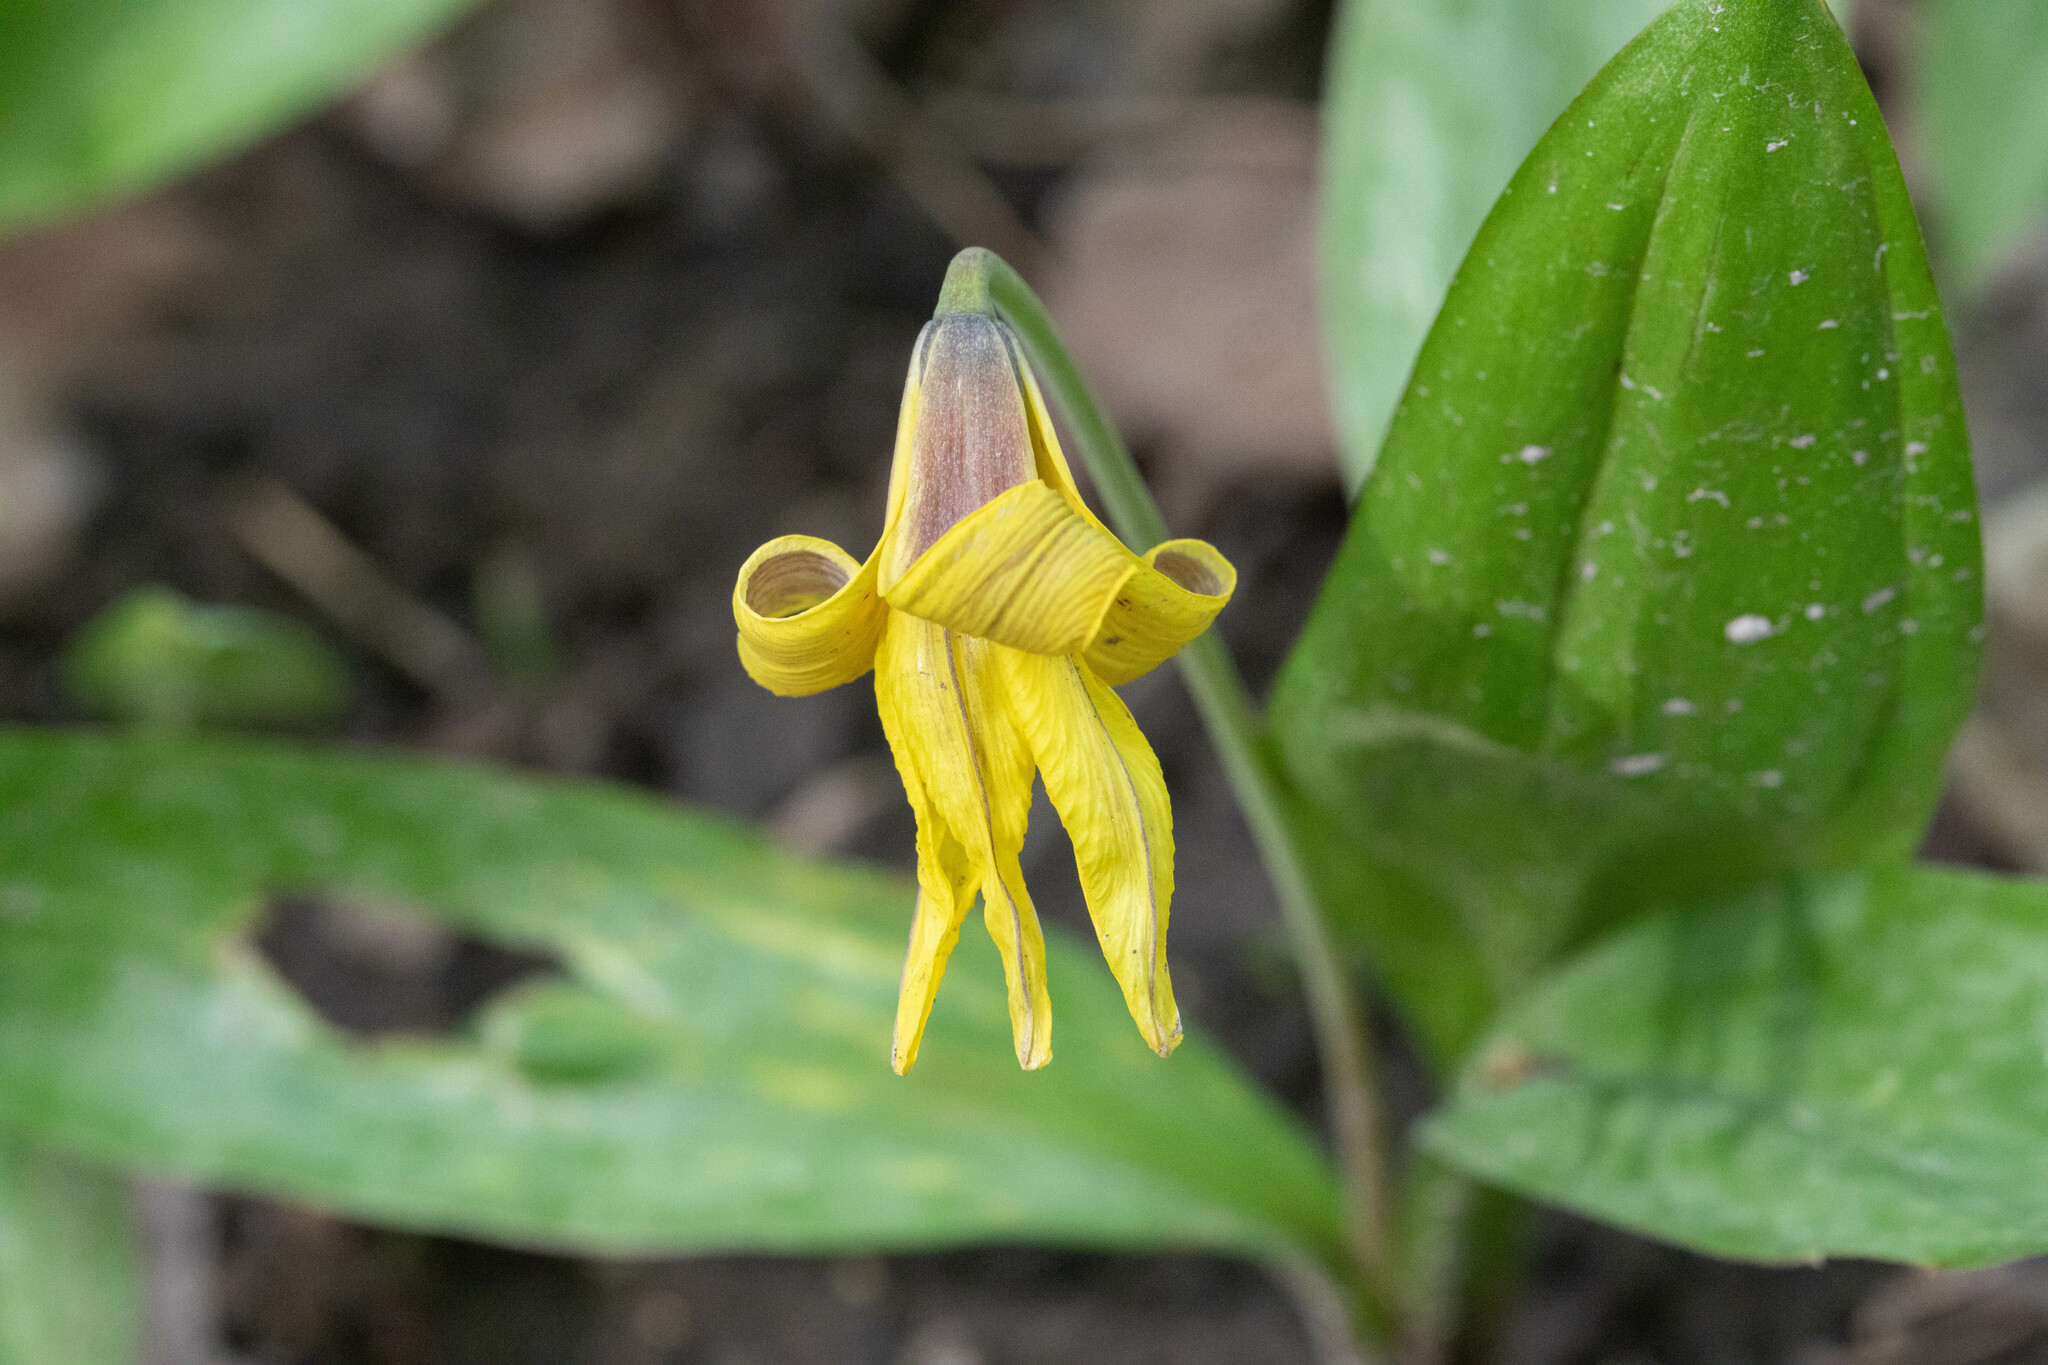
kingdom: Plantae
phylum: Tracheophyta
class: Liliopsida
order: Liliales
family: Liliaceae
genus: Erythronium
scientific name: Erythronium americanum
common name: Yellow adder's-tongue
